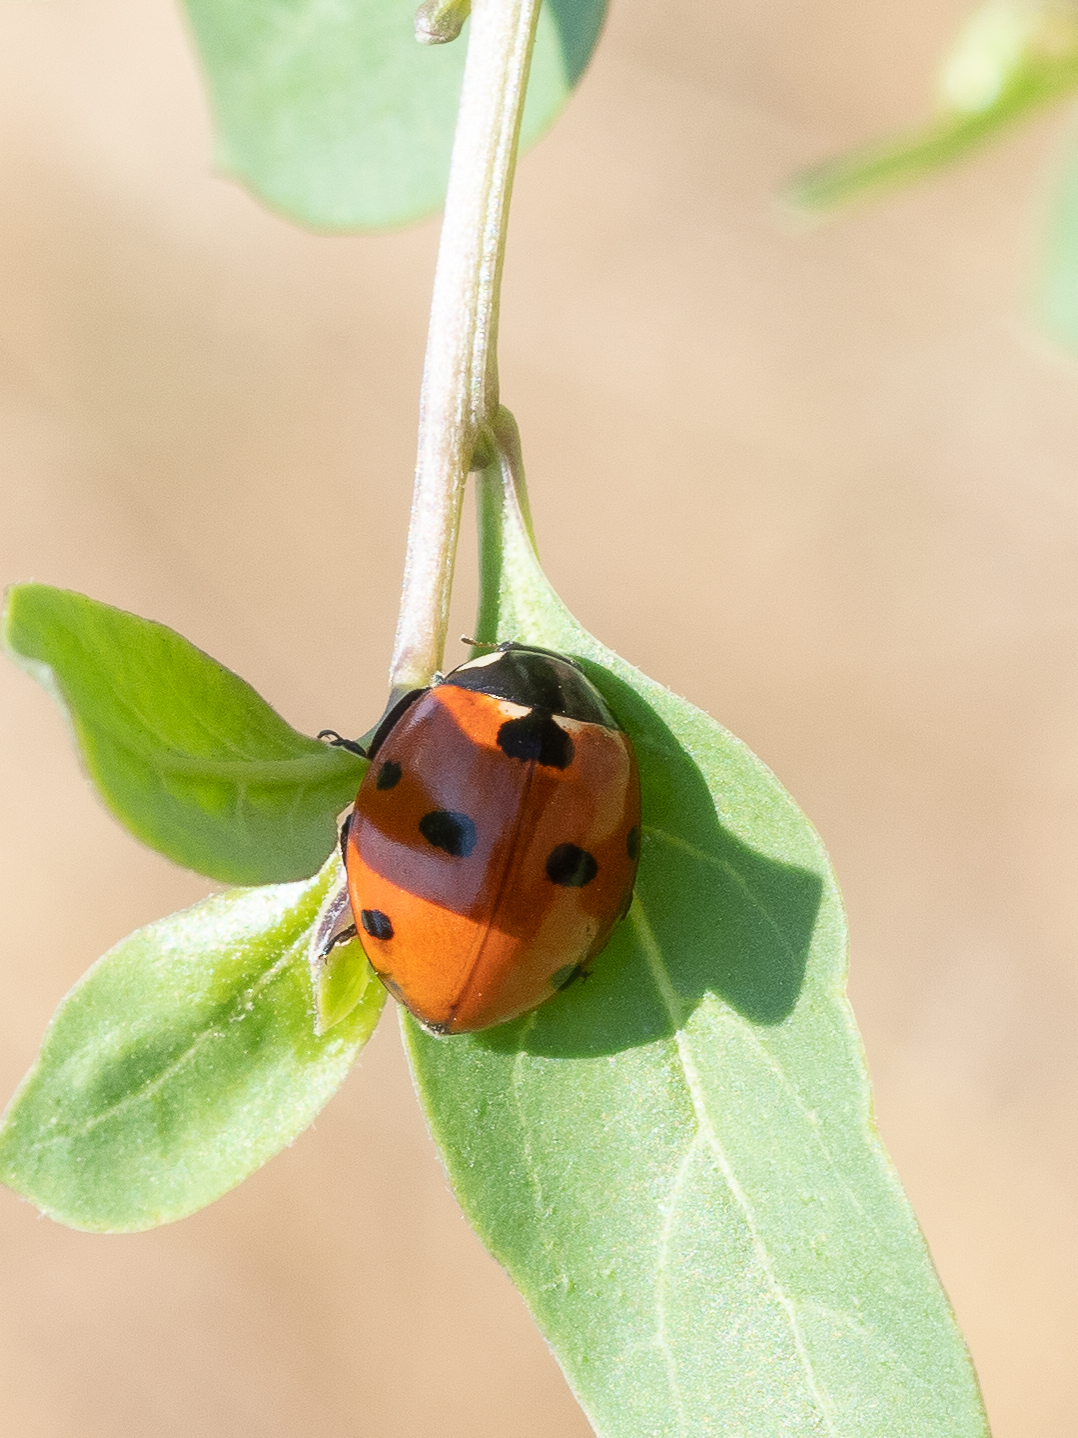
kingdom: Animalia
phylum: Arthropoda
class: Insecta
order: Coleoptera
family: Coccinellidae
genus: Coccinella
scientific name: Coccinella septempunctata
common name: Sevenspotted lady beetle
